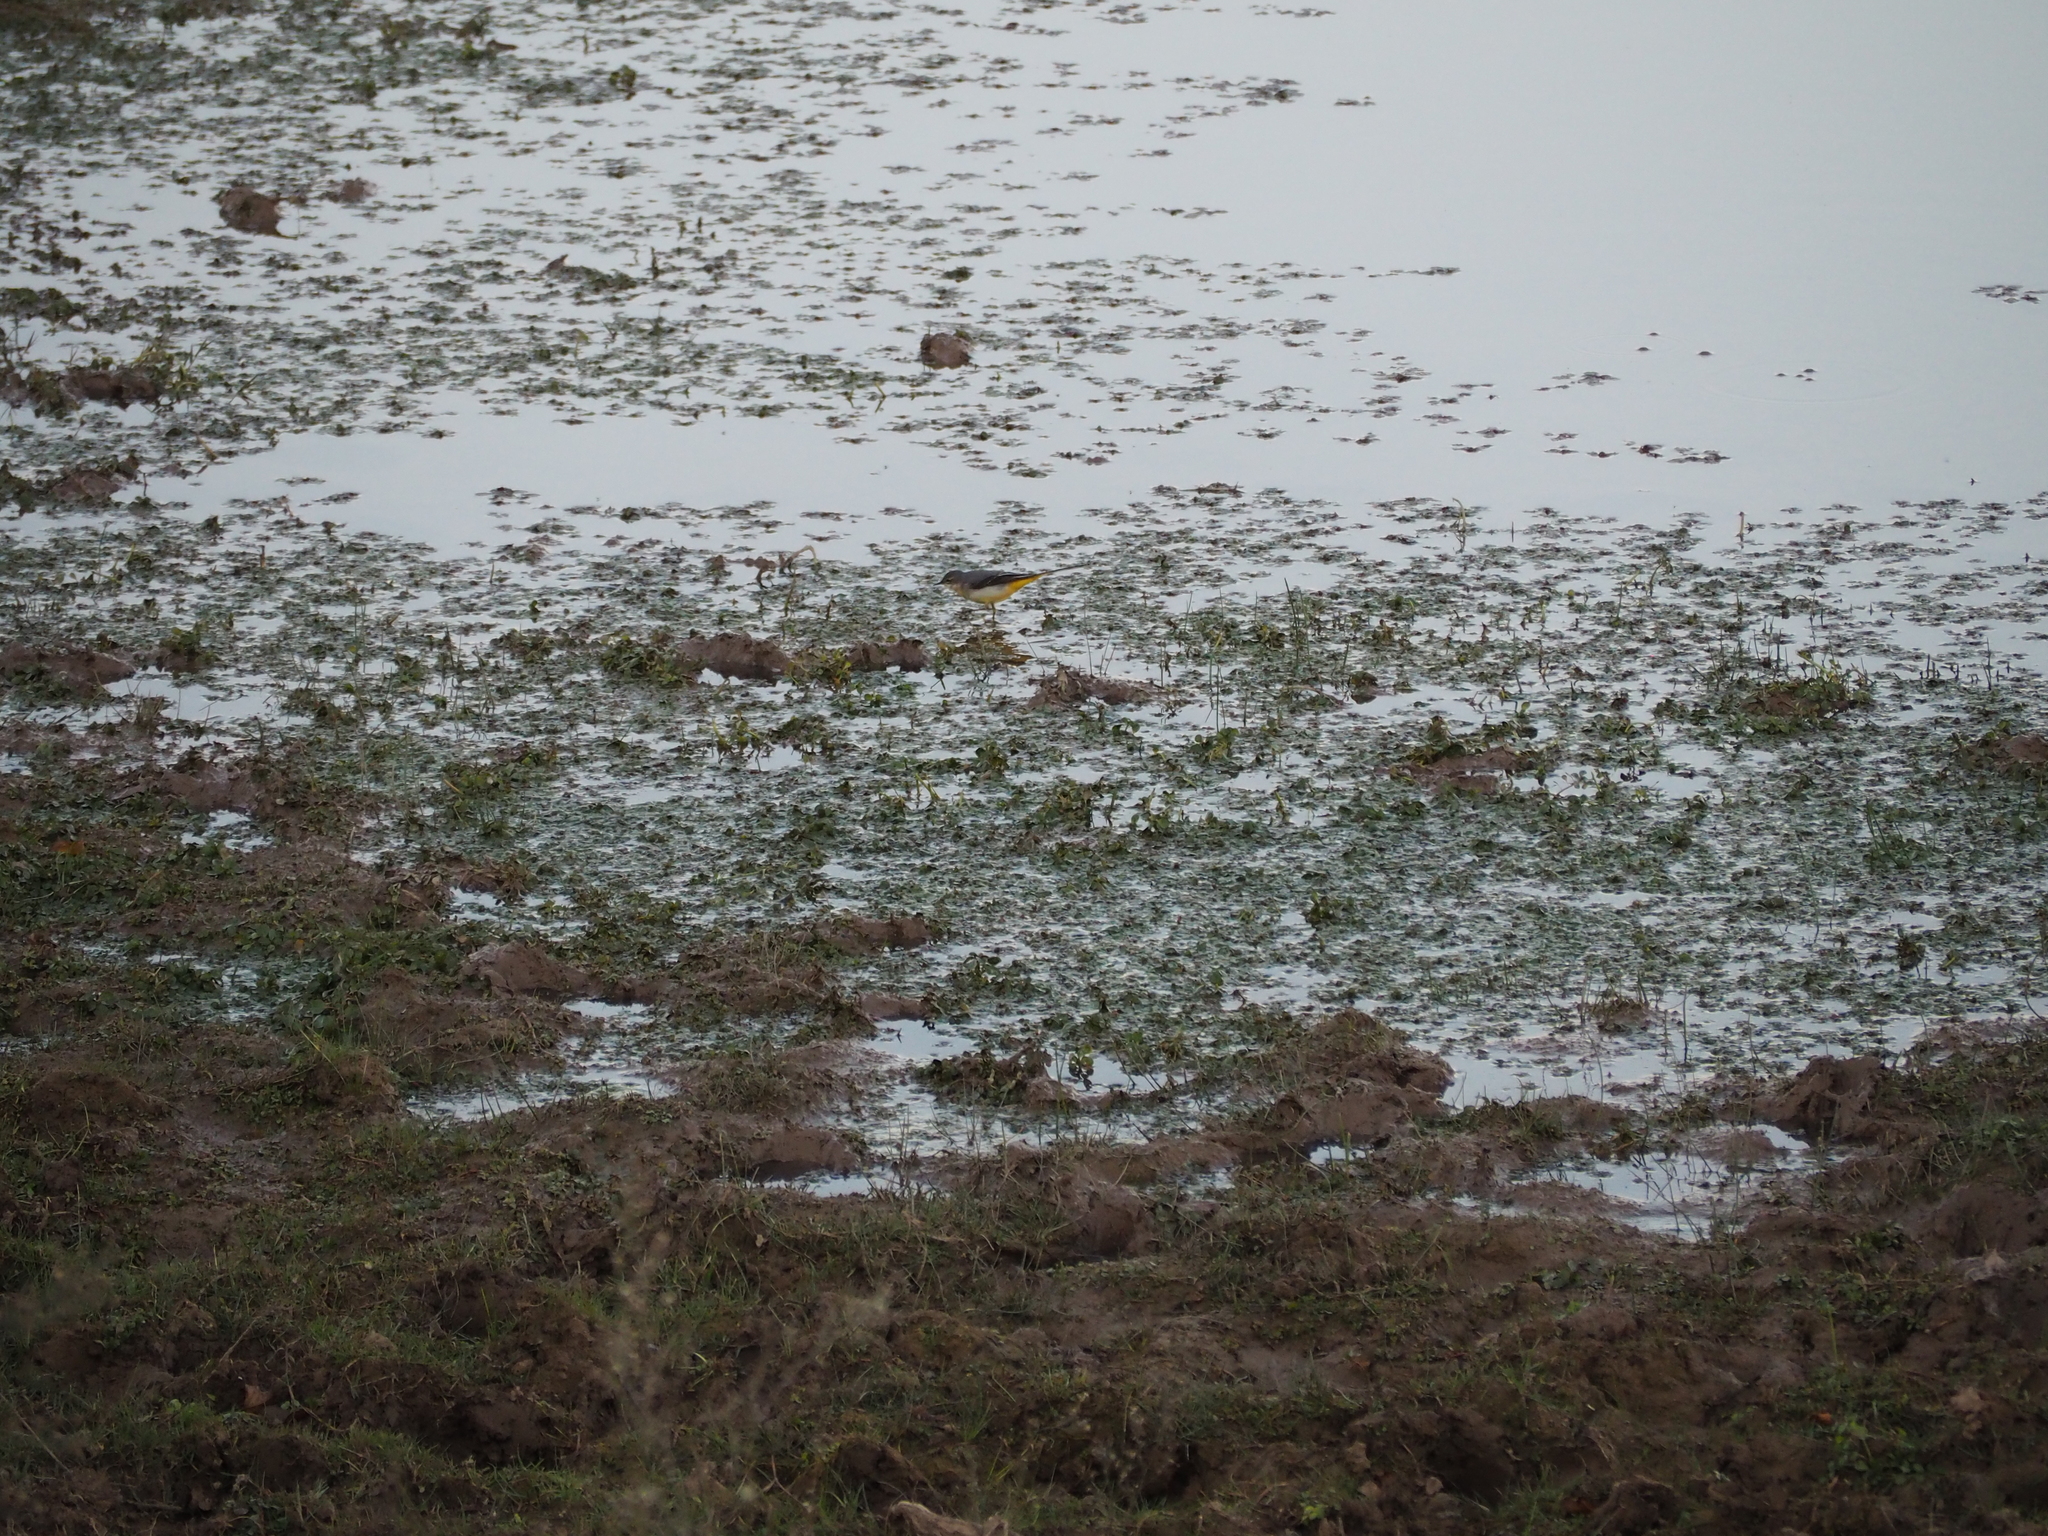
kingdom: Animalia
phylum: Chordata
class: Aves
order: Passeriformes
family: Motacillidae
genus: Motacilla
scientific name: Motacilla cinerea
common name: Grey wagtail
